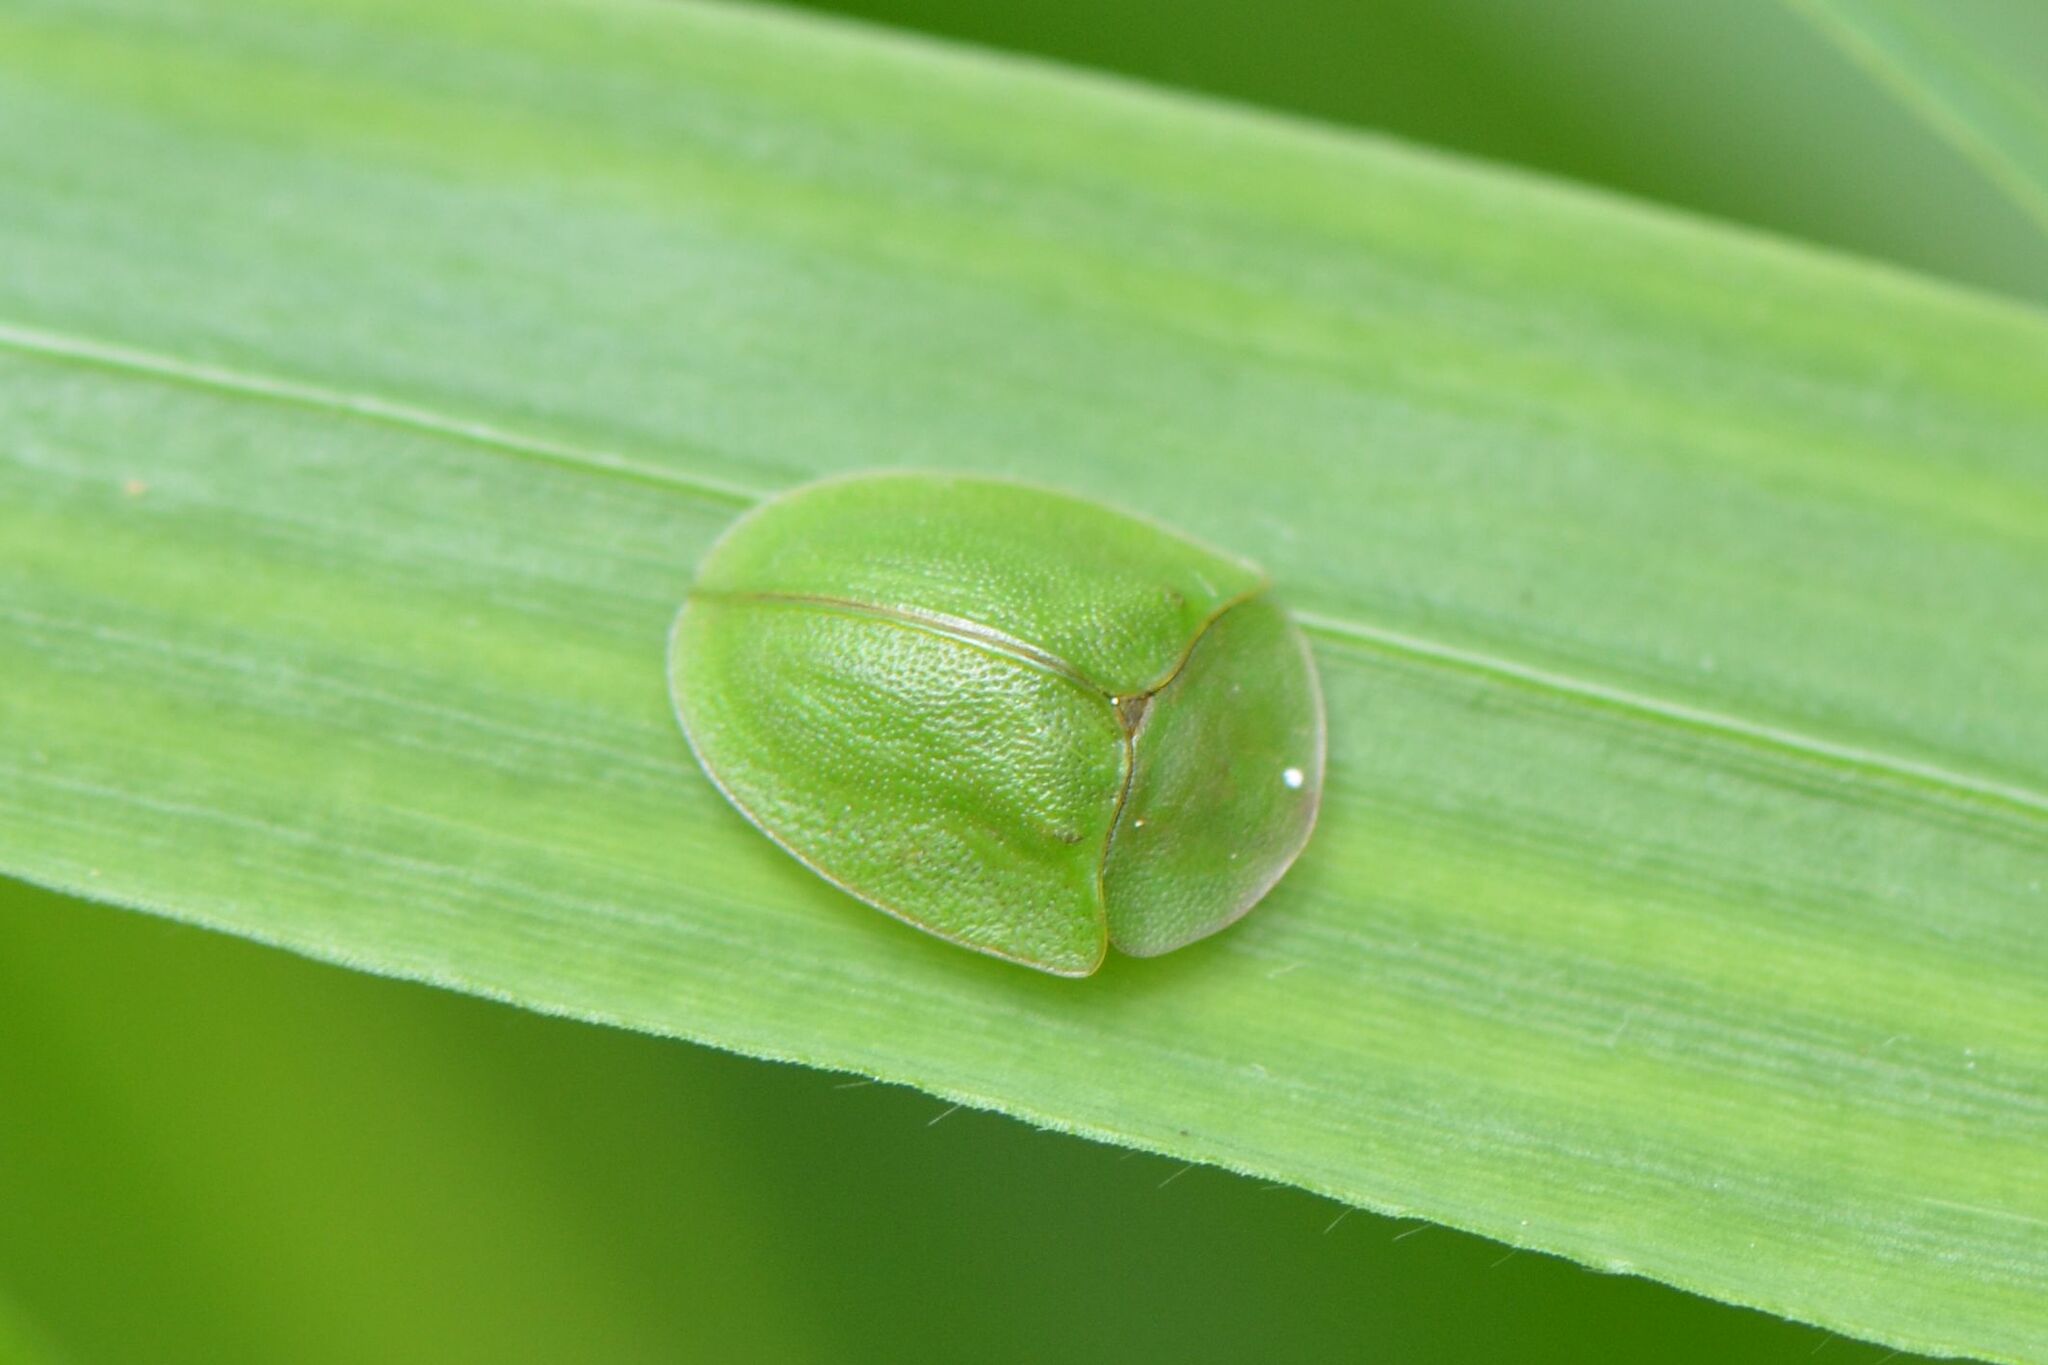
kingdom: Animalia
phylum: Arthropoda
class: Insecta
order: Coleoptera
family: Chrysomelidae
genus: Cassida
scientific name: Cassida viridis
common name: Green tortoise beetle
